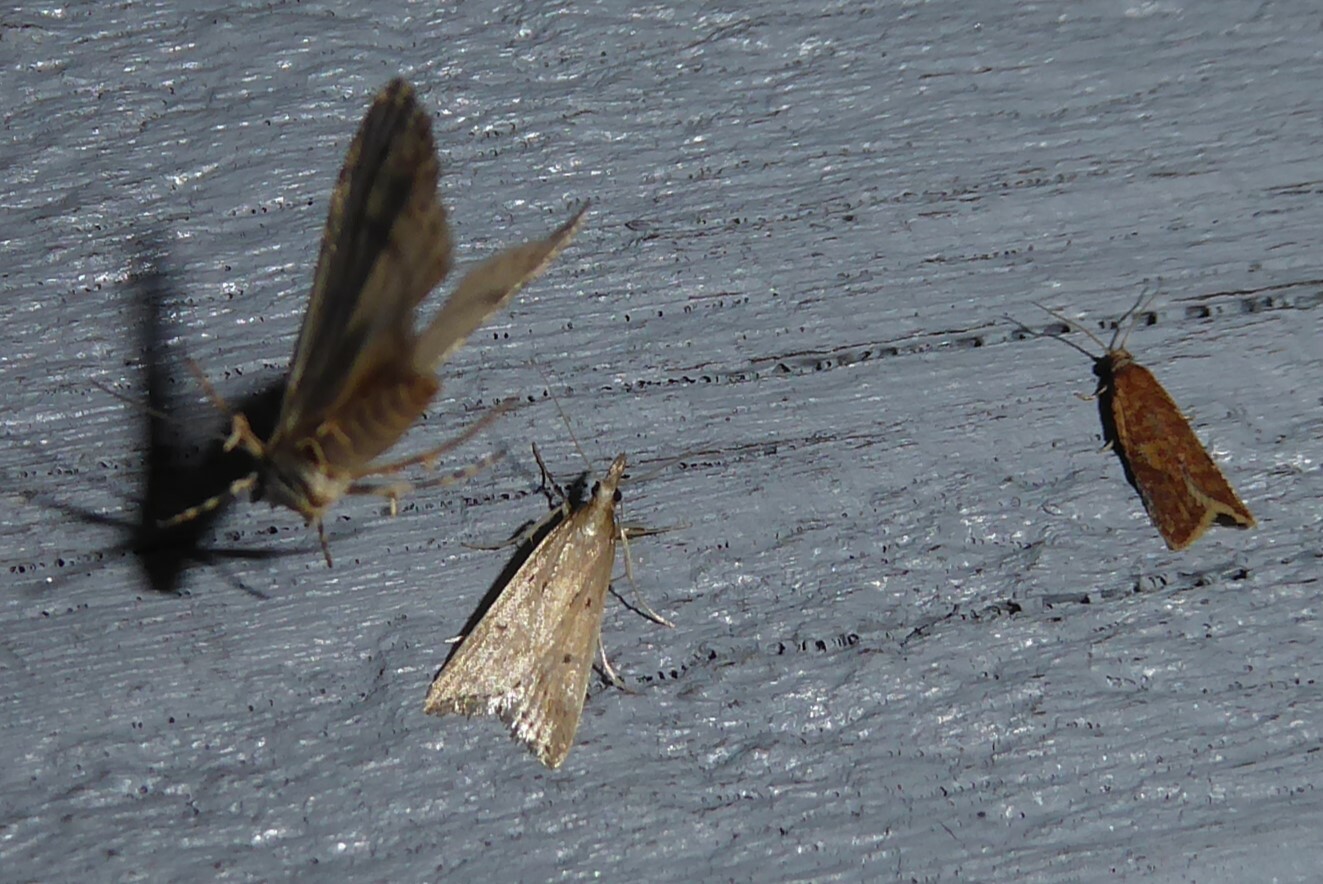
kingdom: Animalia
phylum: Arthropoda
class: Insecta
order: Lepidoptera
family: Crambidae
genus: Antiscopa
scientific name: Antiscopa elaphra
